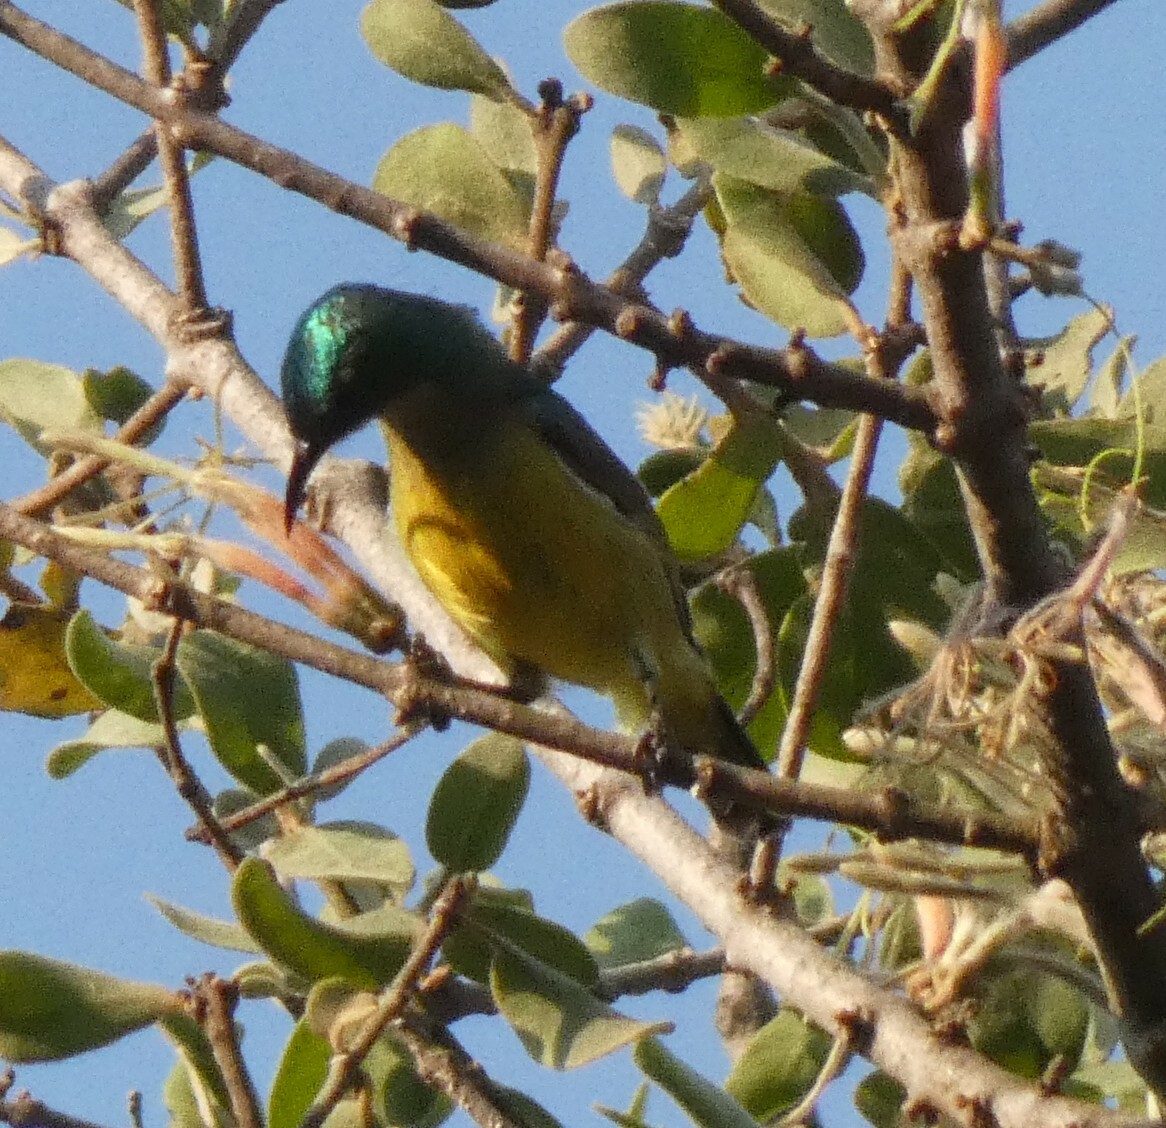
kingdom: Animalia
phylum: Chordata
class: Aves
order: Passeriformes
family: Nectariniidae
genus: Hedydipna
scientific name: Hedydipna collaris
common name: Collared sunbird
